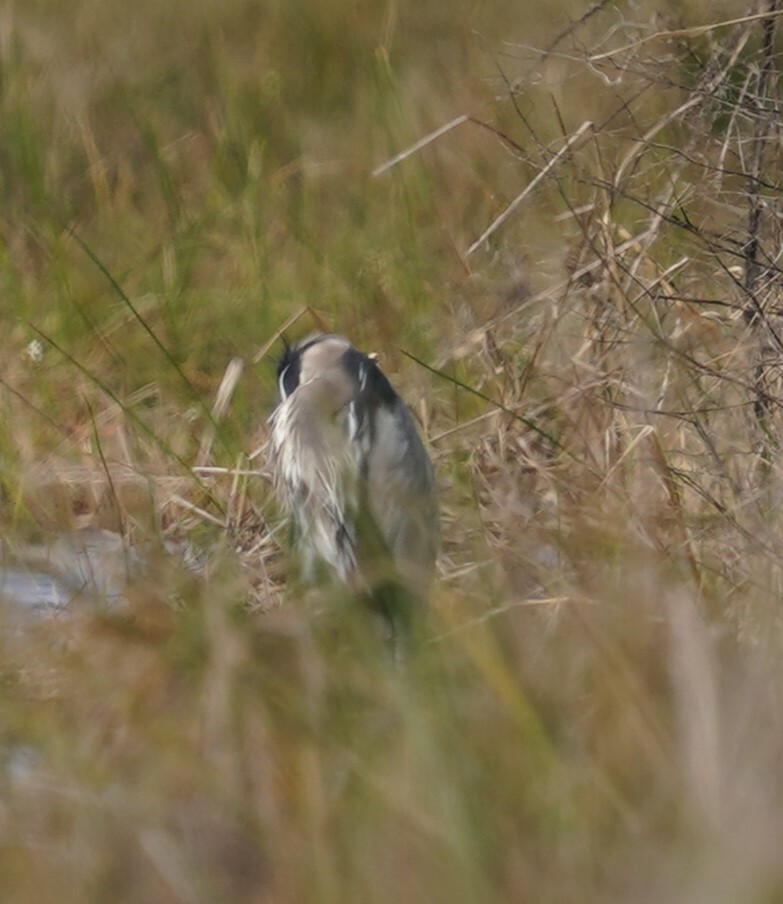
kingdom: Animalia
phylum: Chordata
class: Aves
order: Pelecaniformes
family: Ardeidae
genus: Ardea
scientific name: Ardea herodias
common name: Great blue heron
